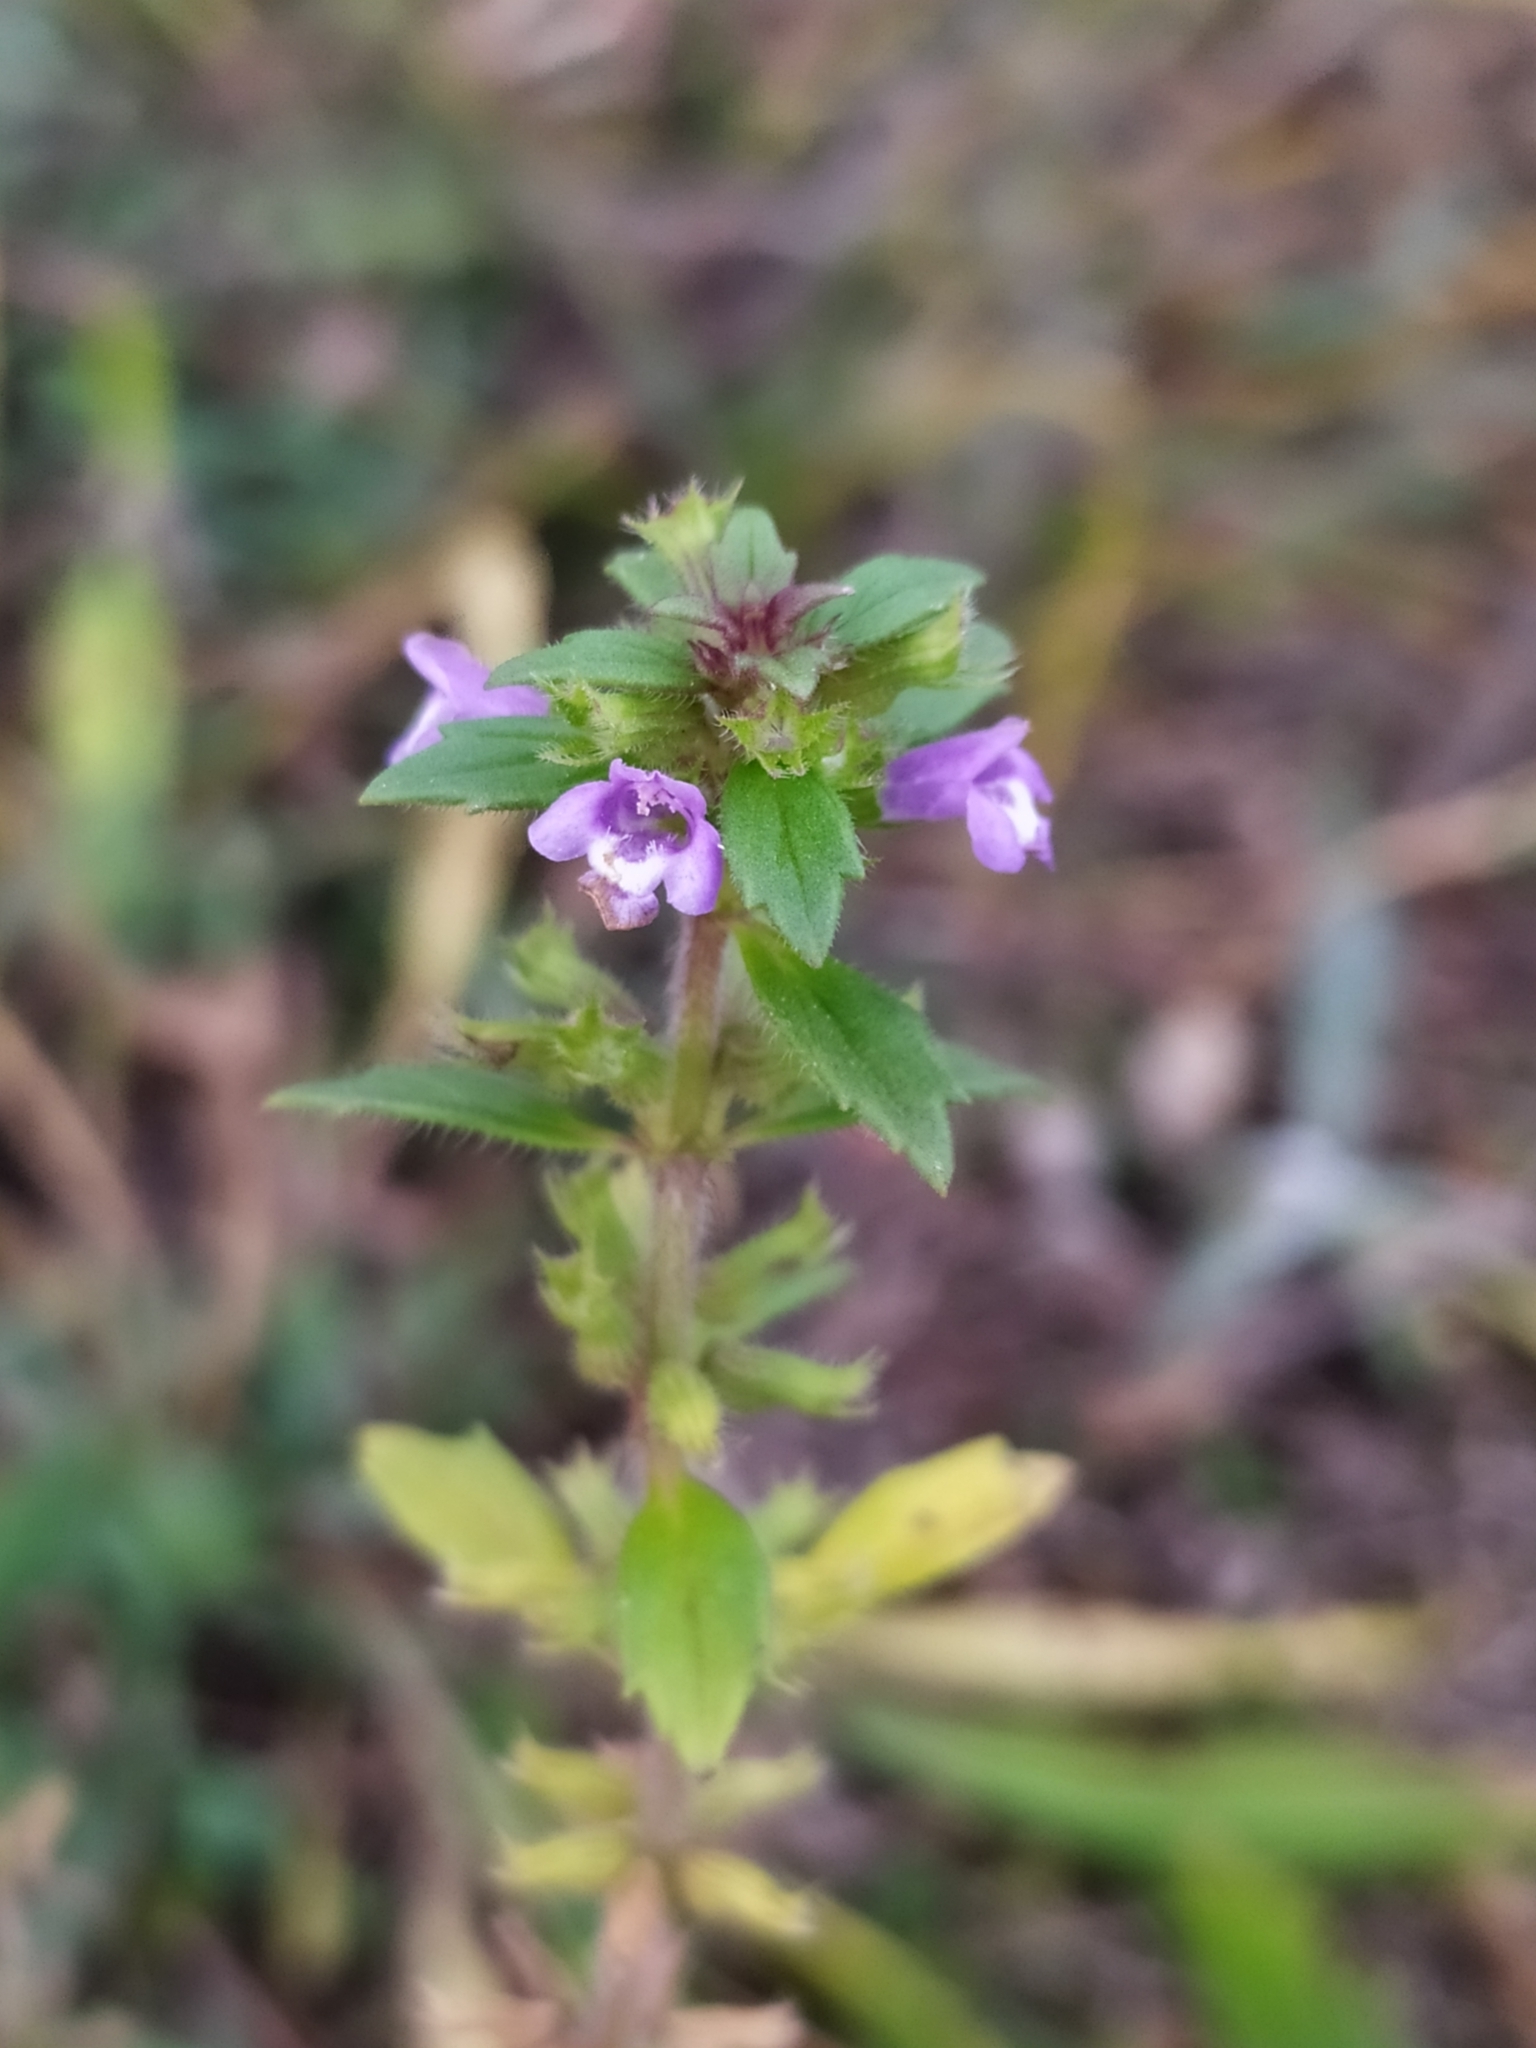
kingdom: Plantae
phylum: Tracheophyta
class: Magnoliopsida
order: Lamiales
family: Lamiaceae
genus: Clinopodium
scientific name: Clinopodium acinos
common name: Basil thyme
